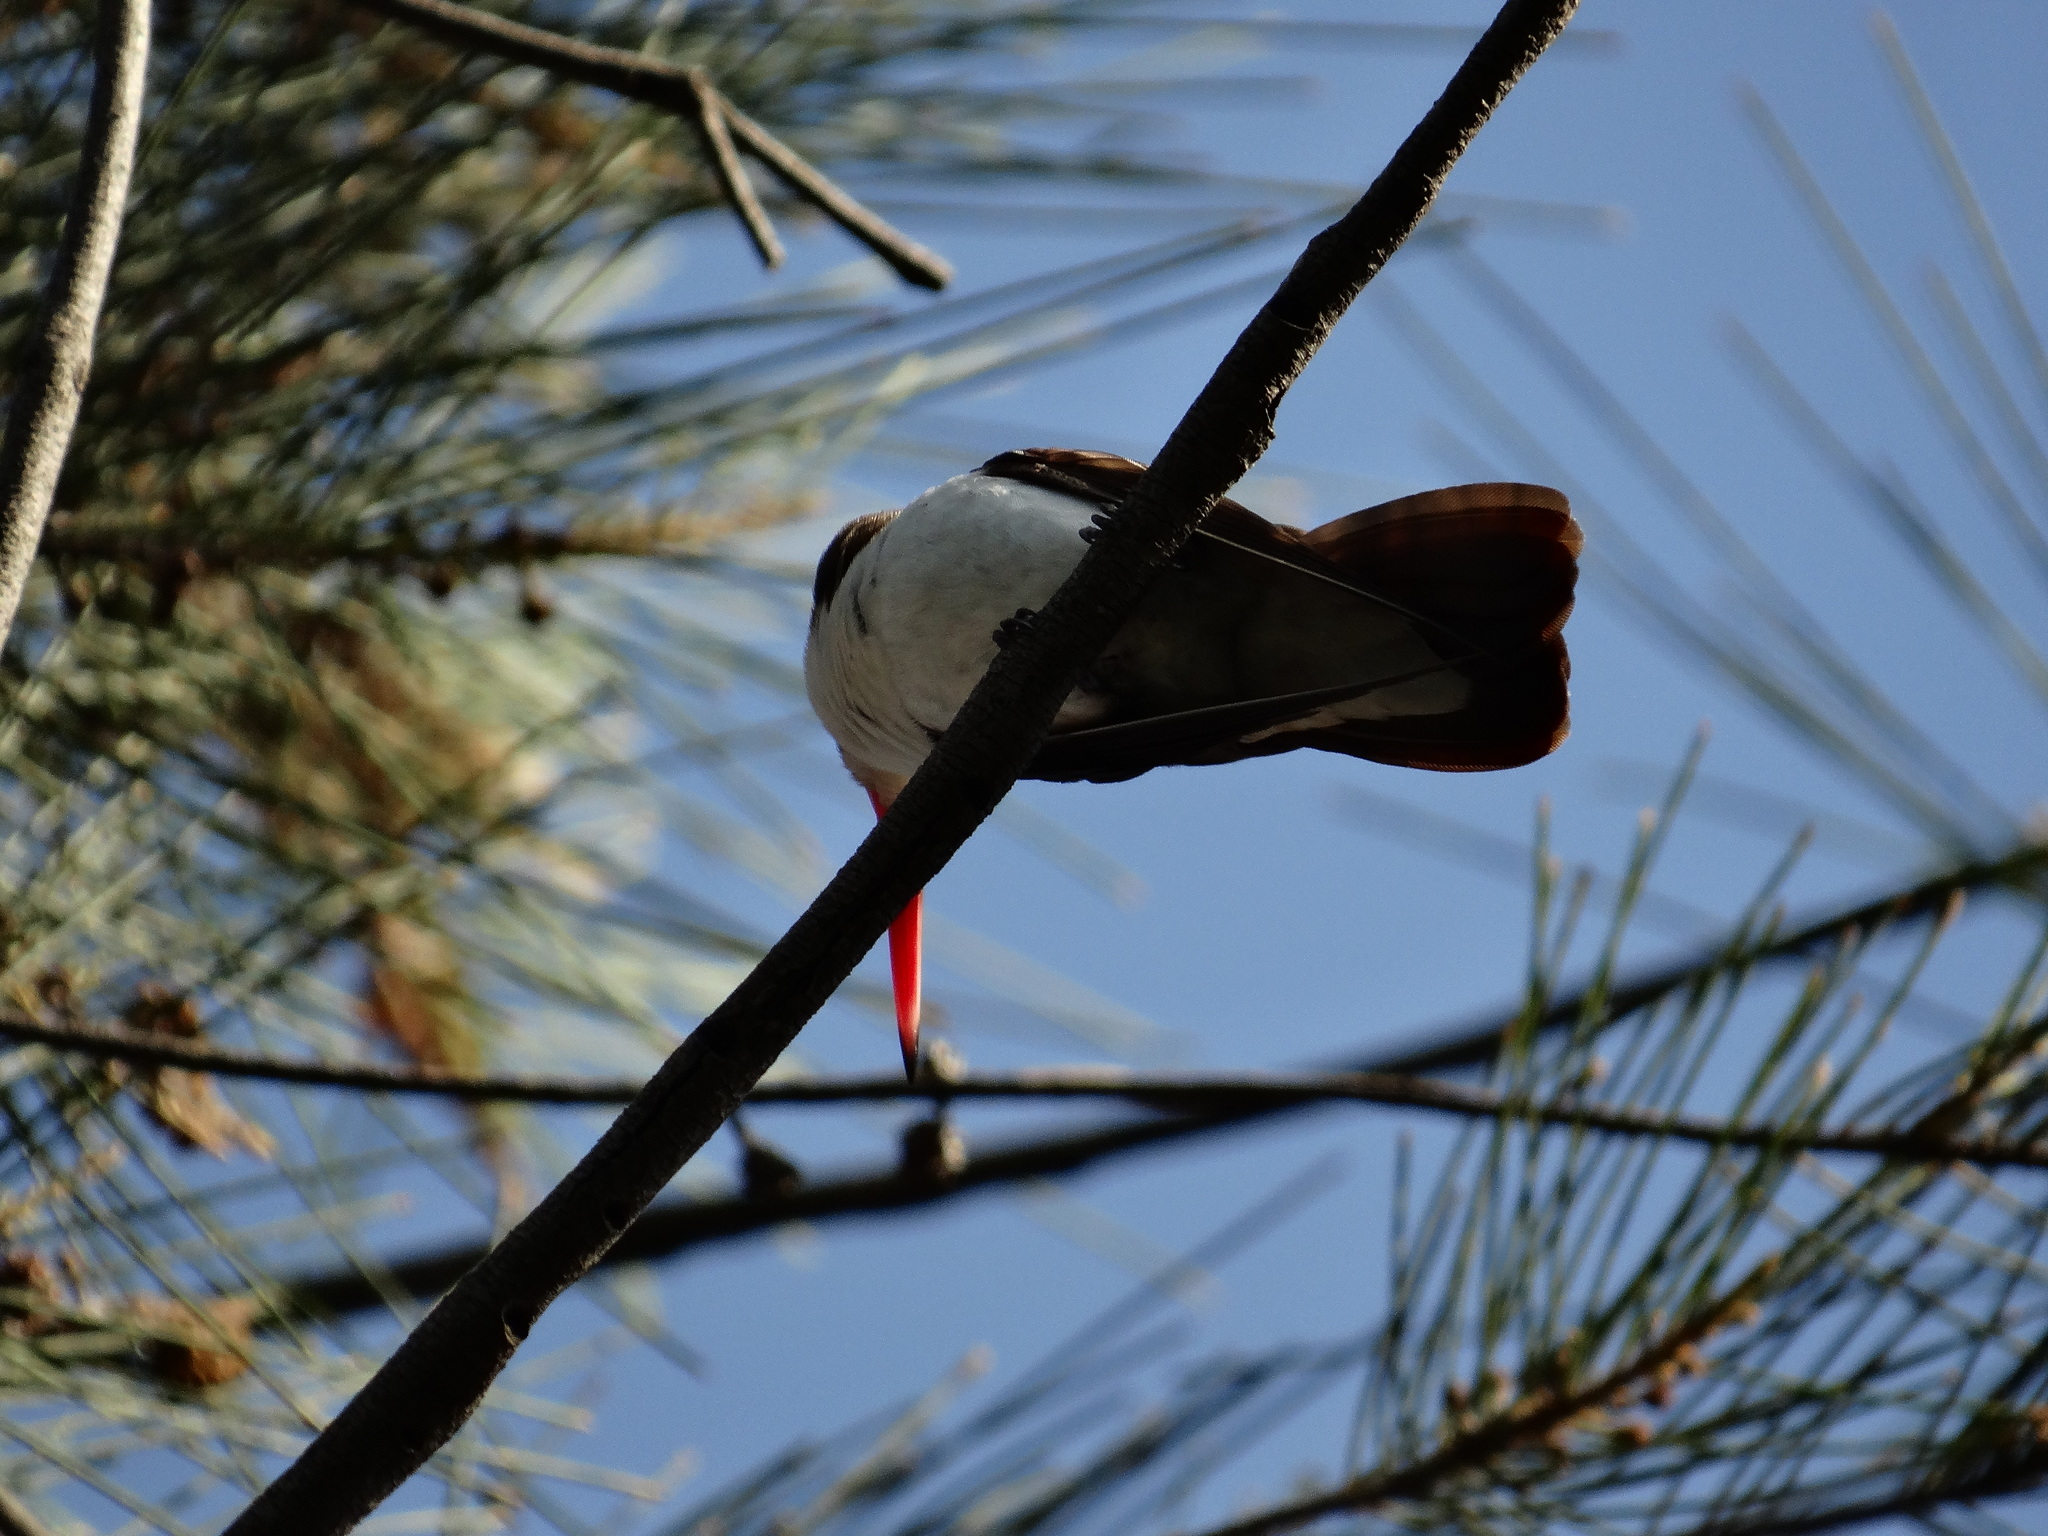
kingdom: Animalia
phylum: Chordata
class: Aves
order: Apodiformes
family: Trochilidae
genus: Leucolia
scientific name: Leucolia violiceps
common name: Violet-crowned hummingbird
